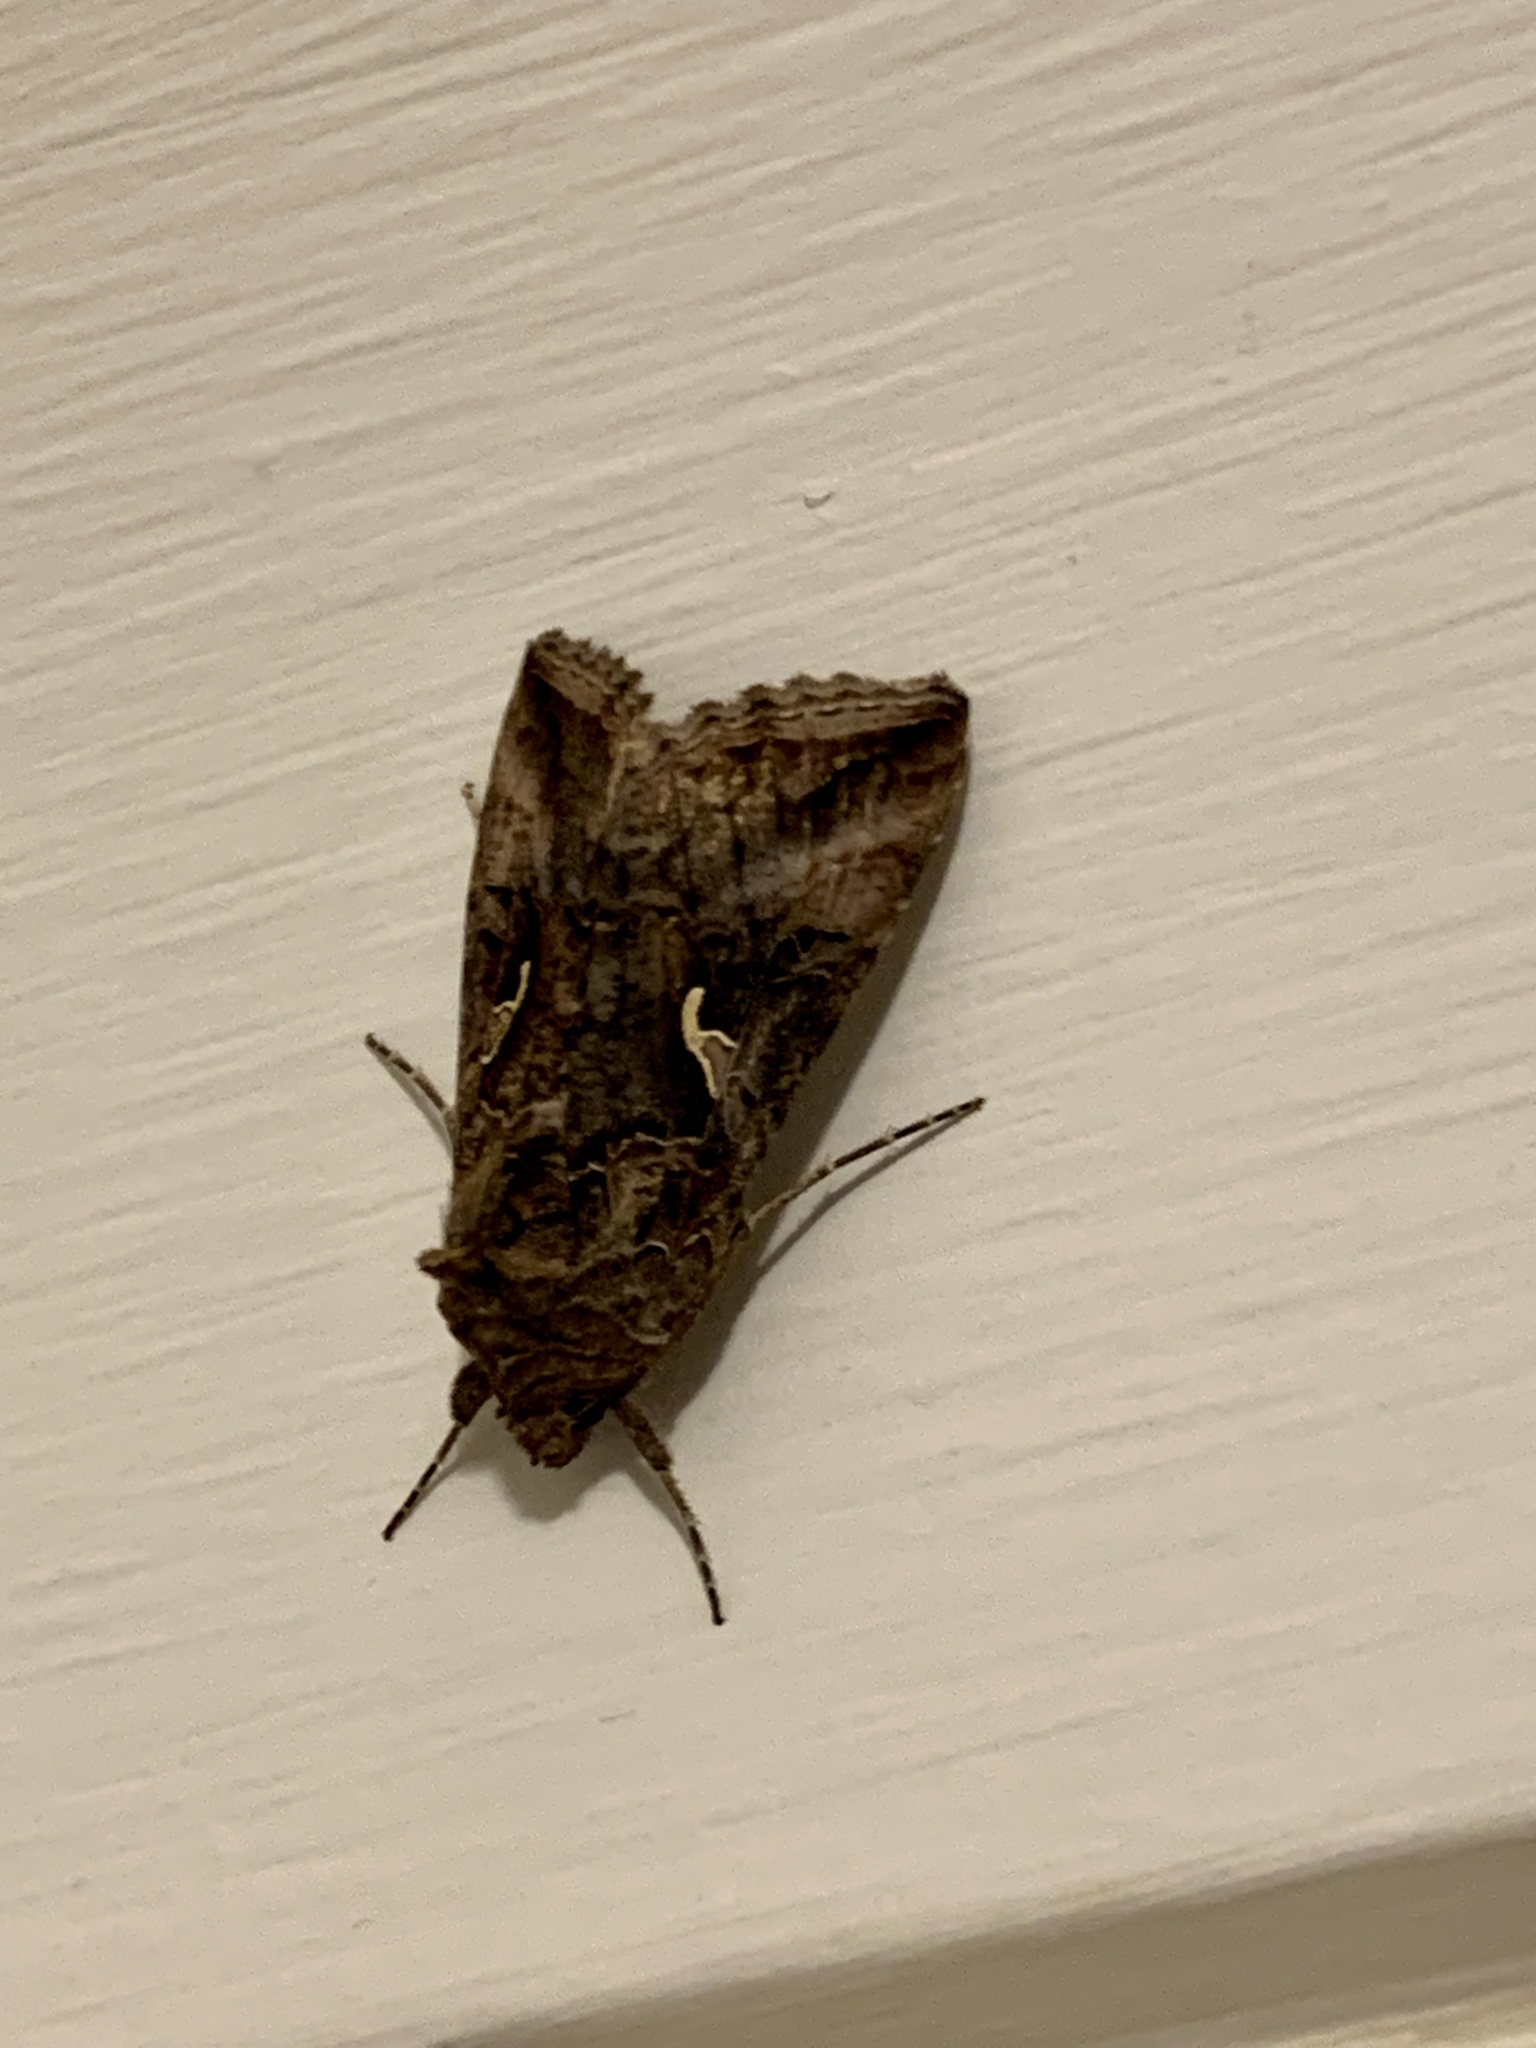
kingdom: Animalia
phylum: Arthropoda
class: Insecta
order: Lepidoptera
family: Noctuidae
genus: Autographa
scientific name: Autographa gamma
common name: Silver y
